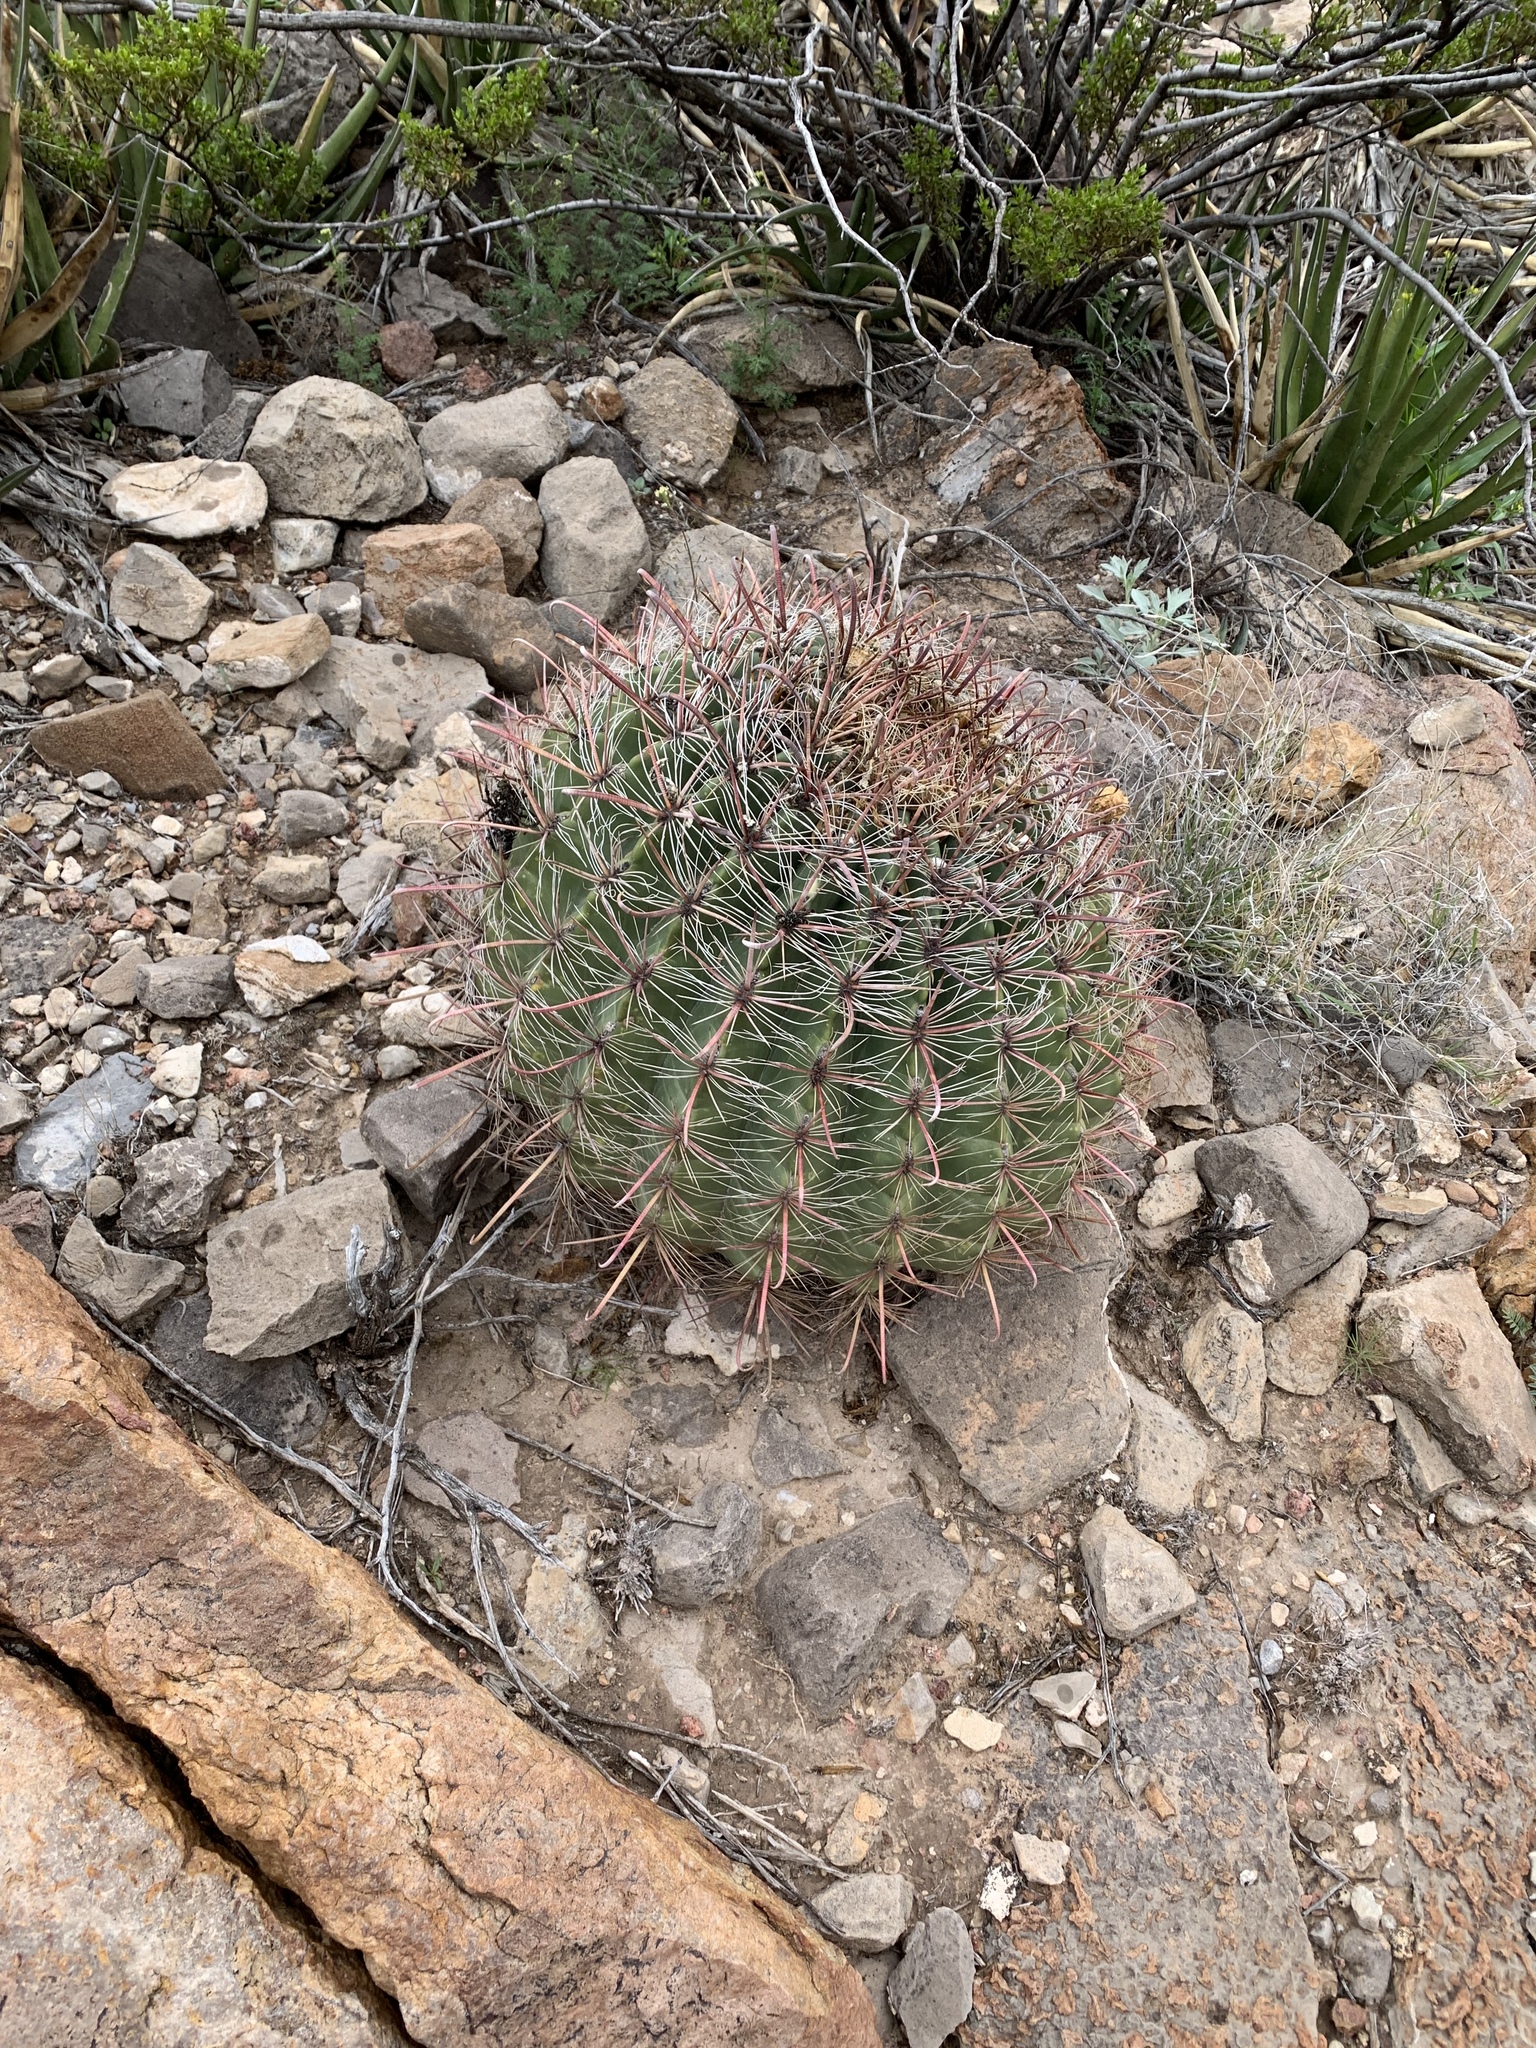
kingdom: Plantae
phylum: Tracheophyta
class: Magnoliopsida
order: Caryophyllales
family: Cactaceae
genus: Ferocactus
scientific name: Ferocactus wislizeni
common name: Candy barrel cactus
